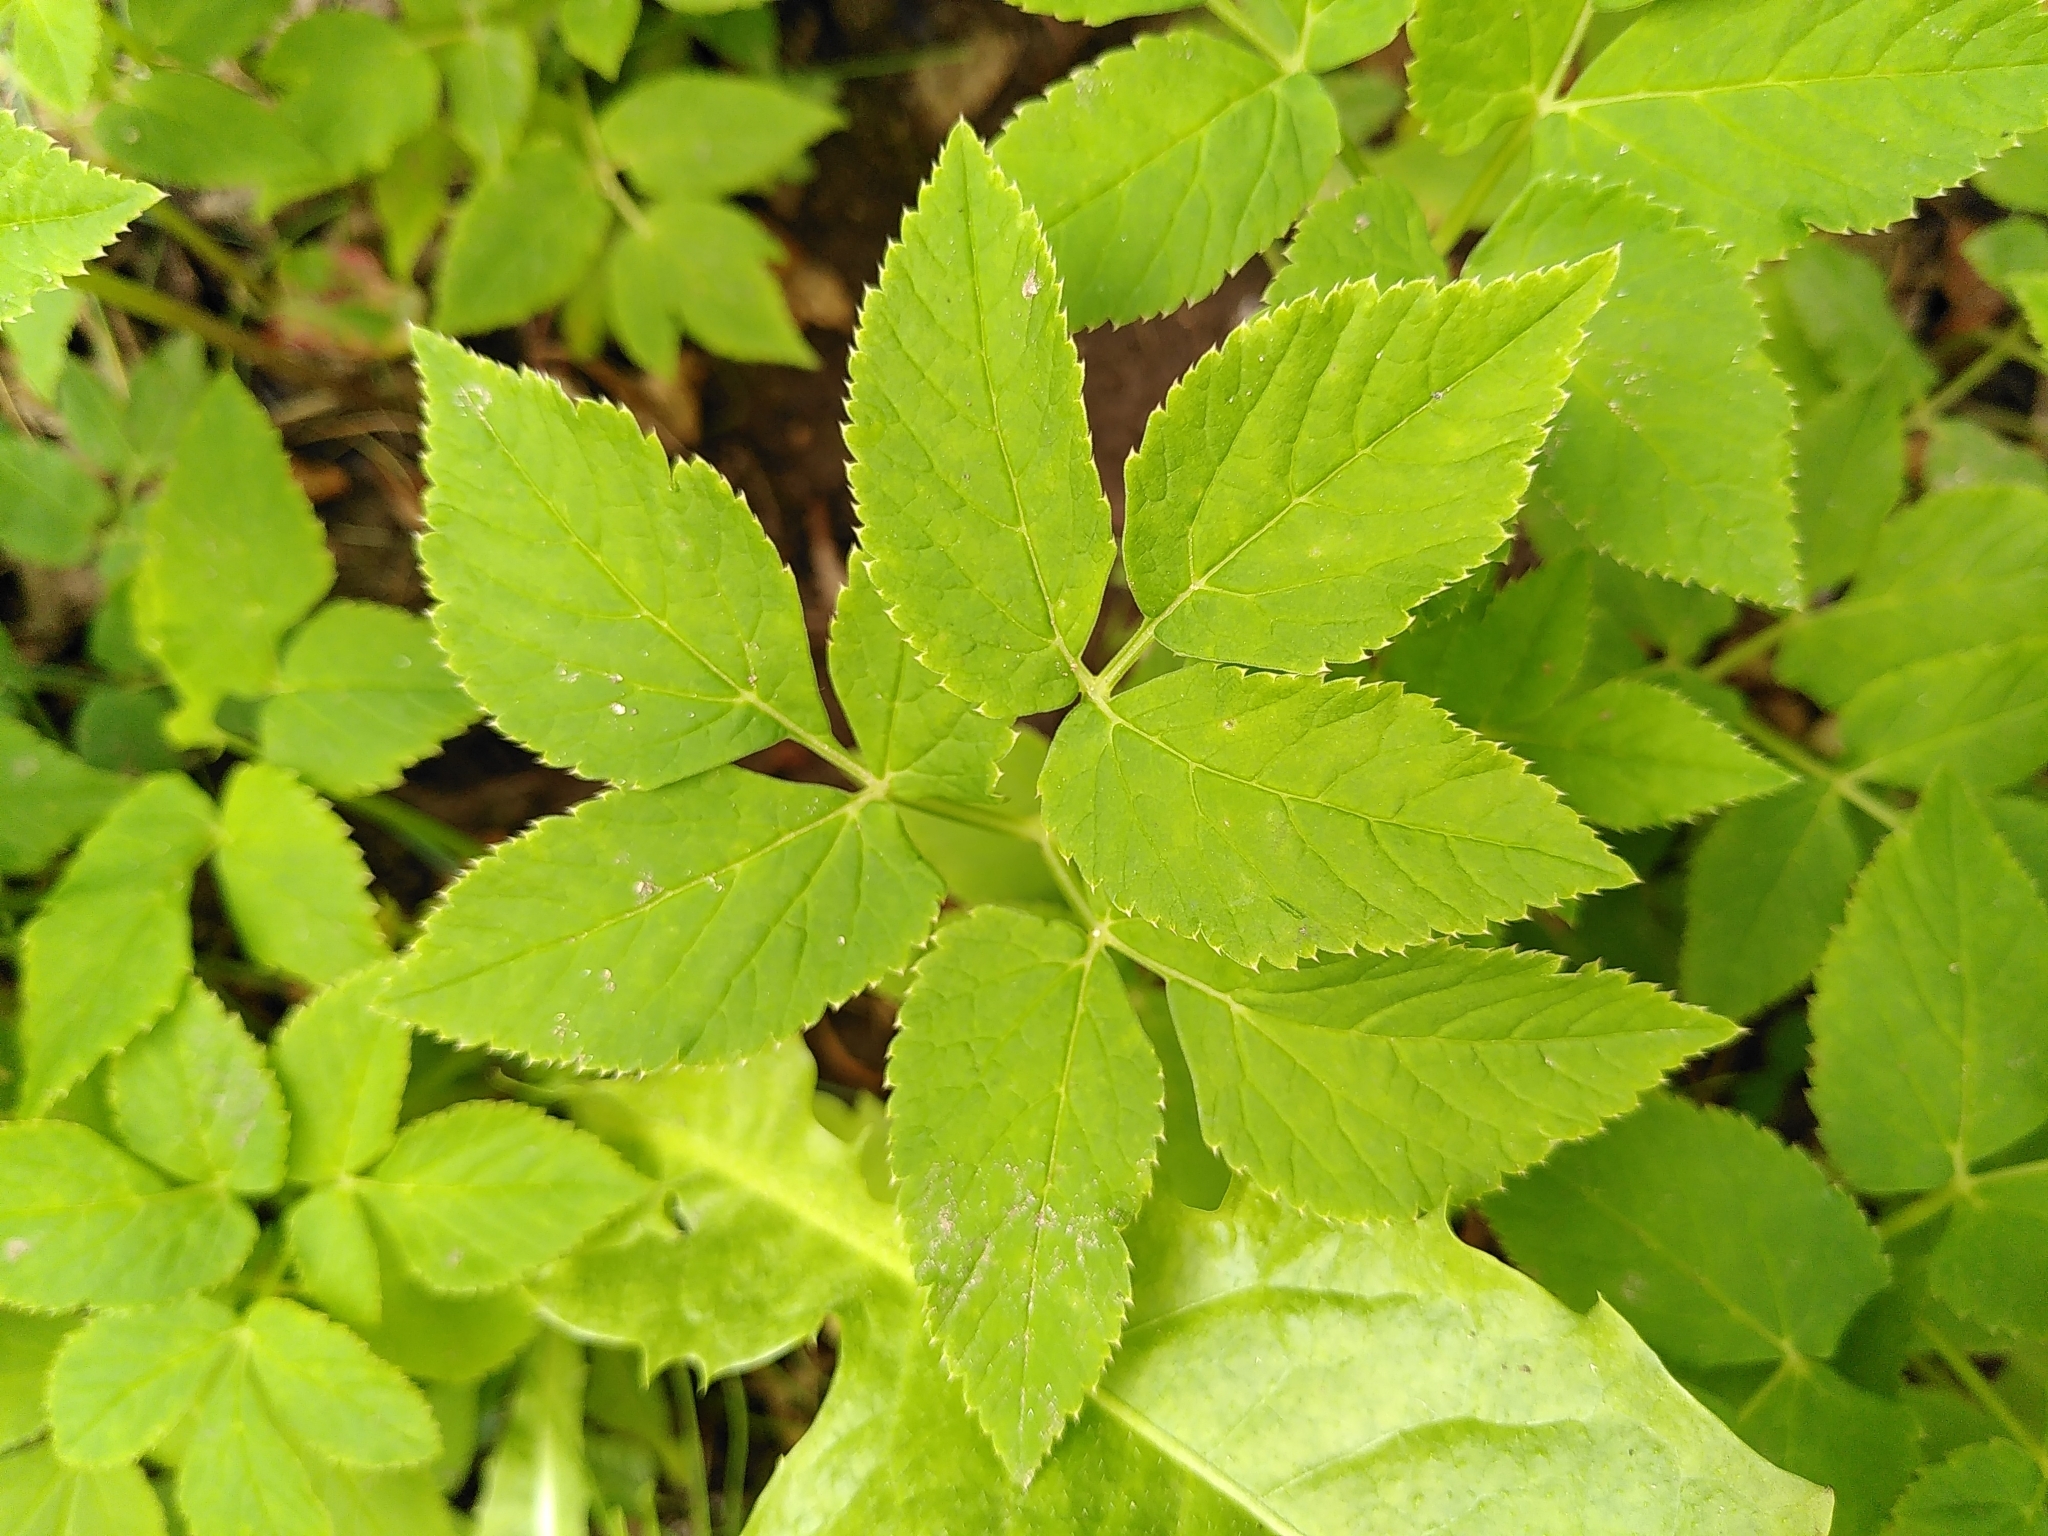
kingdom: Plantae
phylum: Tracheophyta
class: Magnoliopsida
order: Apiales
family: Apiaceae
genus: Aegopodium
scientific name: Aegopodium podagraria
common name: Ground-elder
